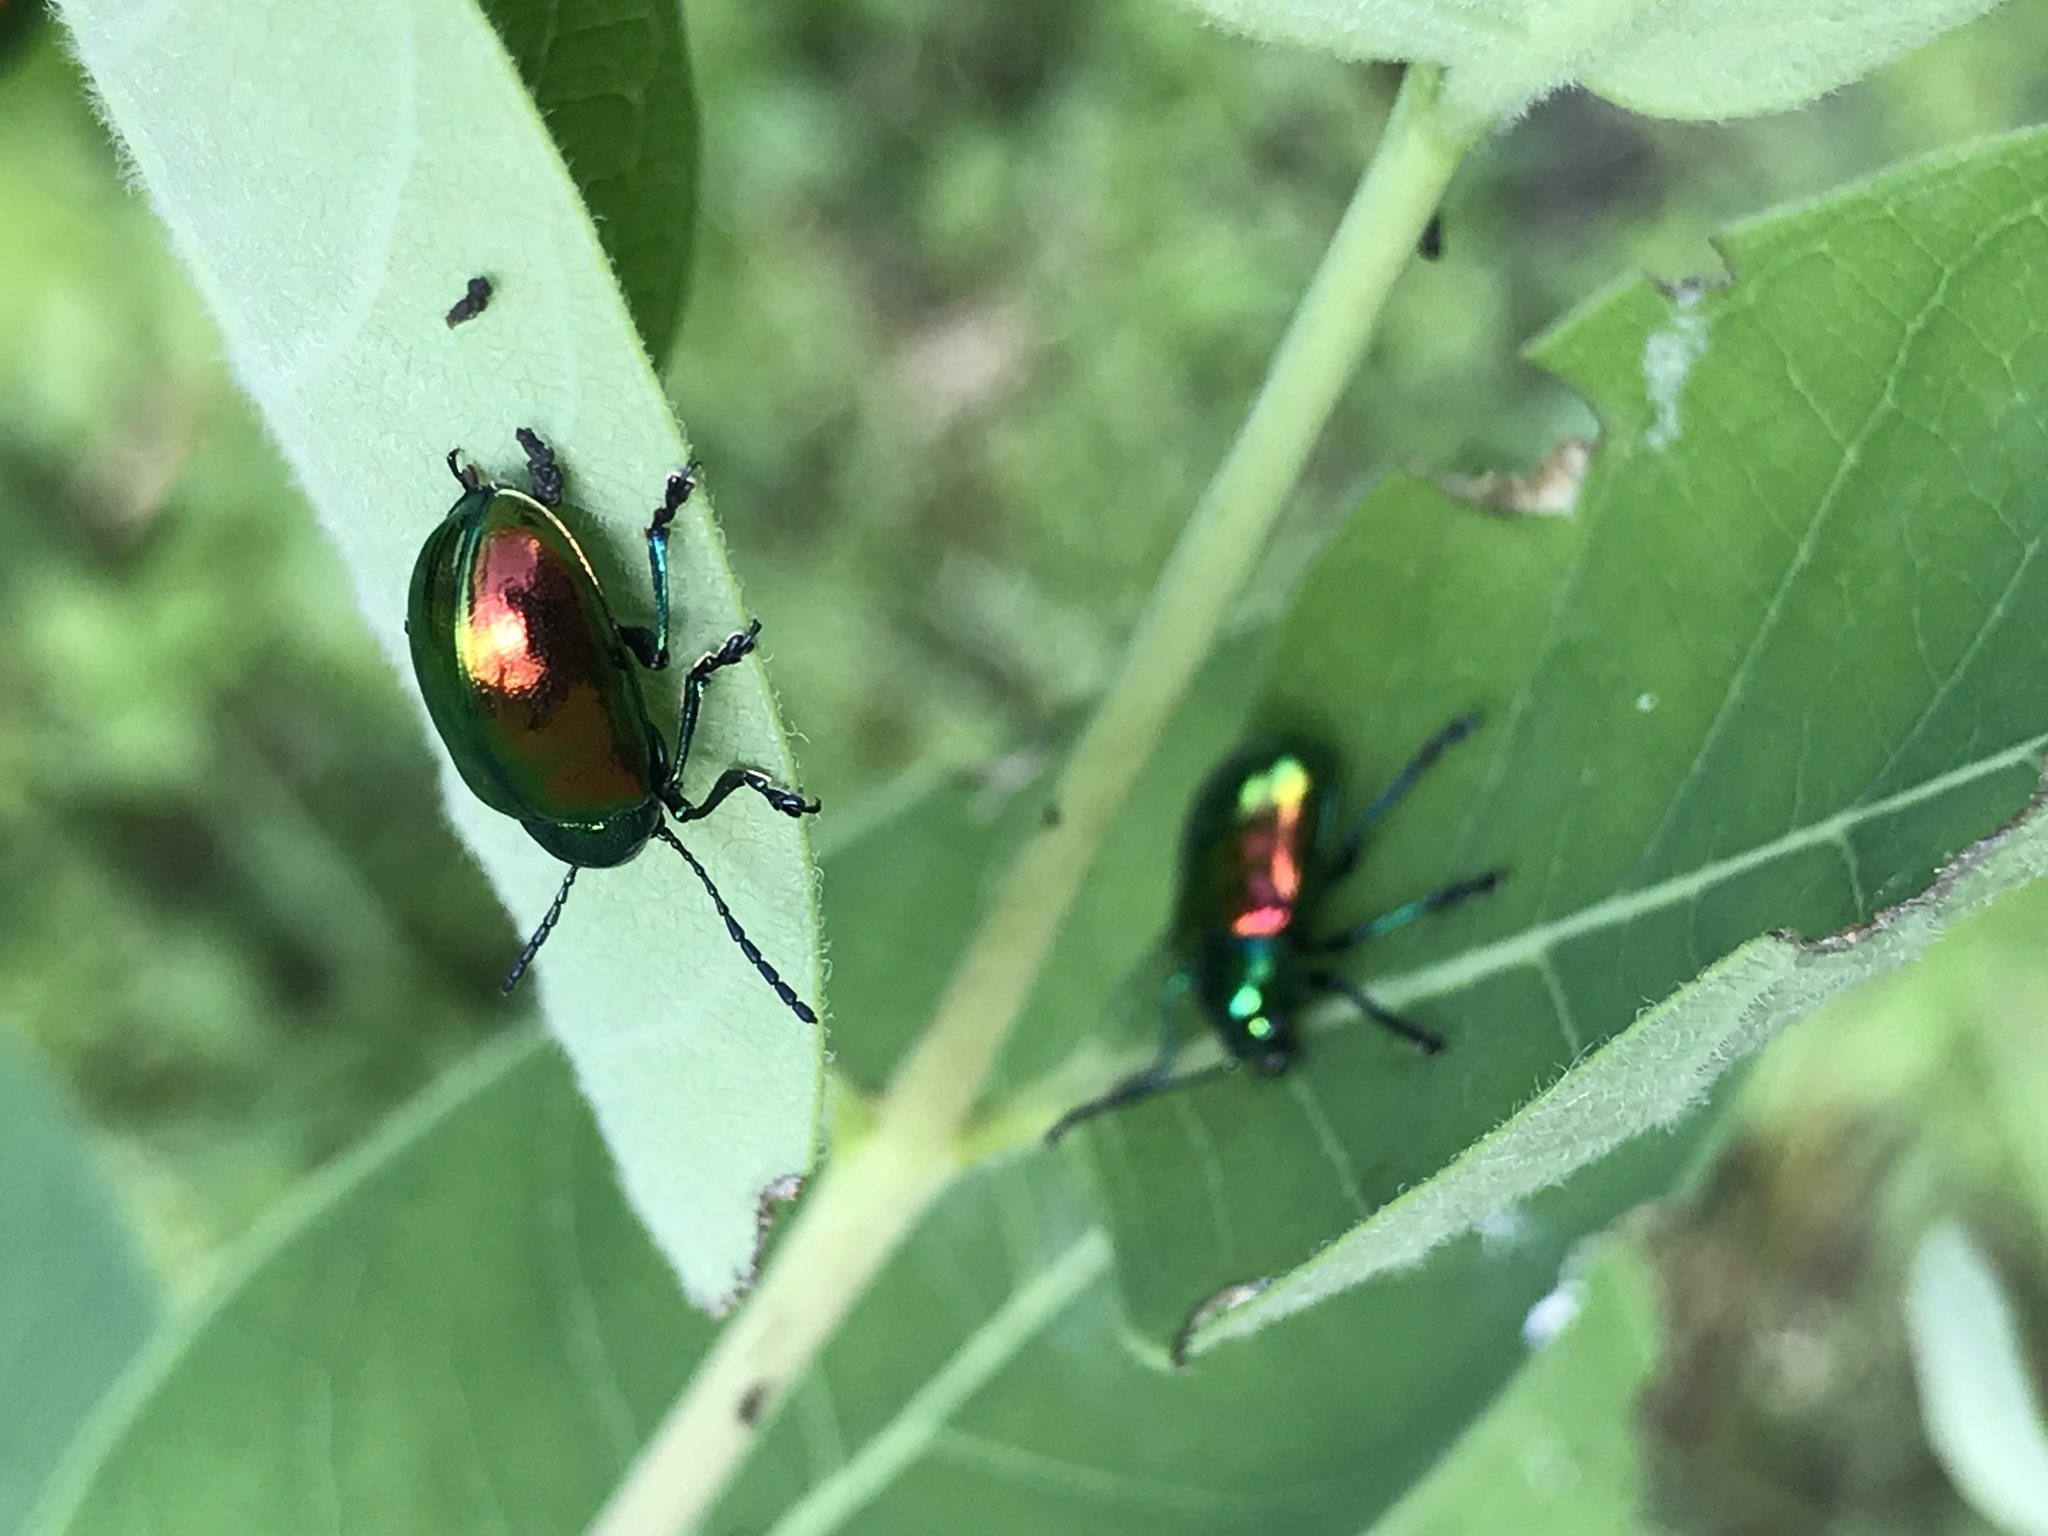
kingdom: Animalia
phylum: Arthropoda
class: Insecta
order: Coleoptera
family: Chrysomelidae
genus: Chrysochus
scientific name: Chrysochus auratus
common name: Dogbane leaf beetle
